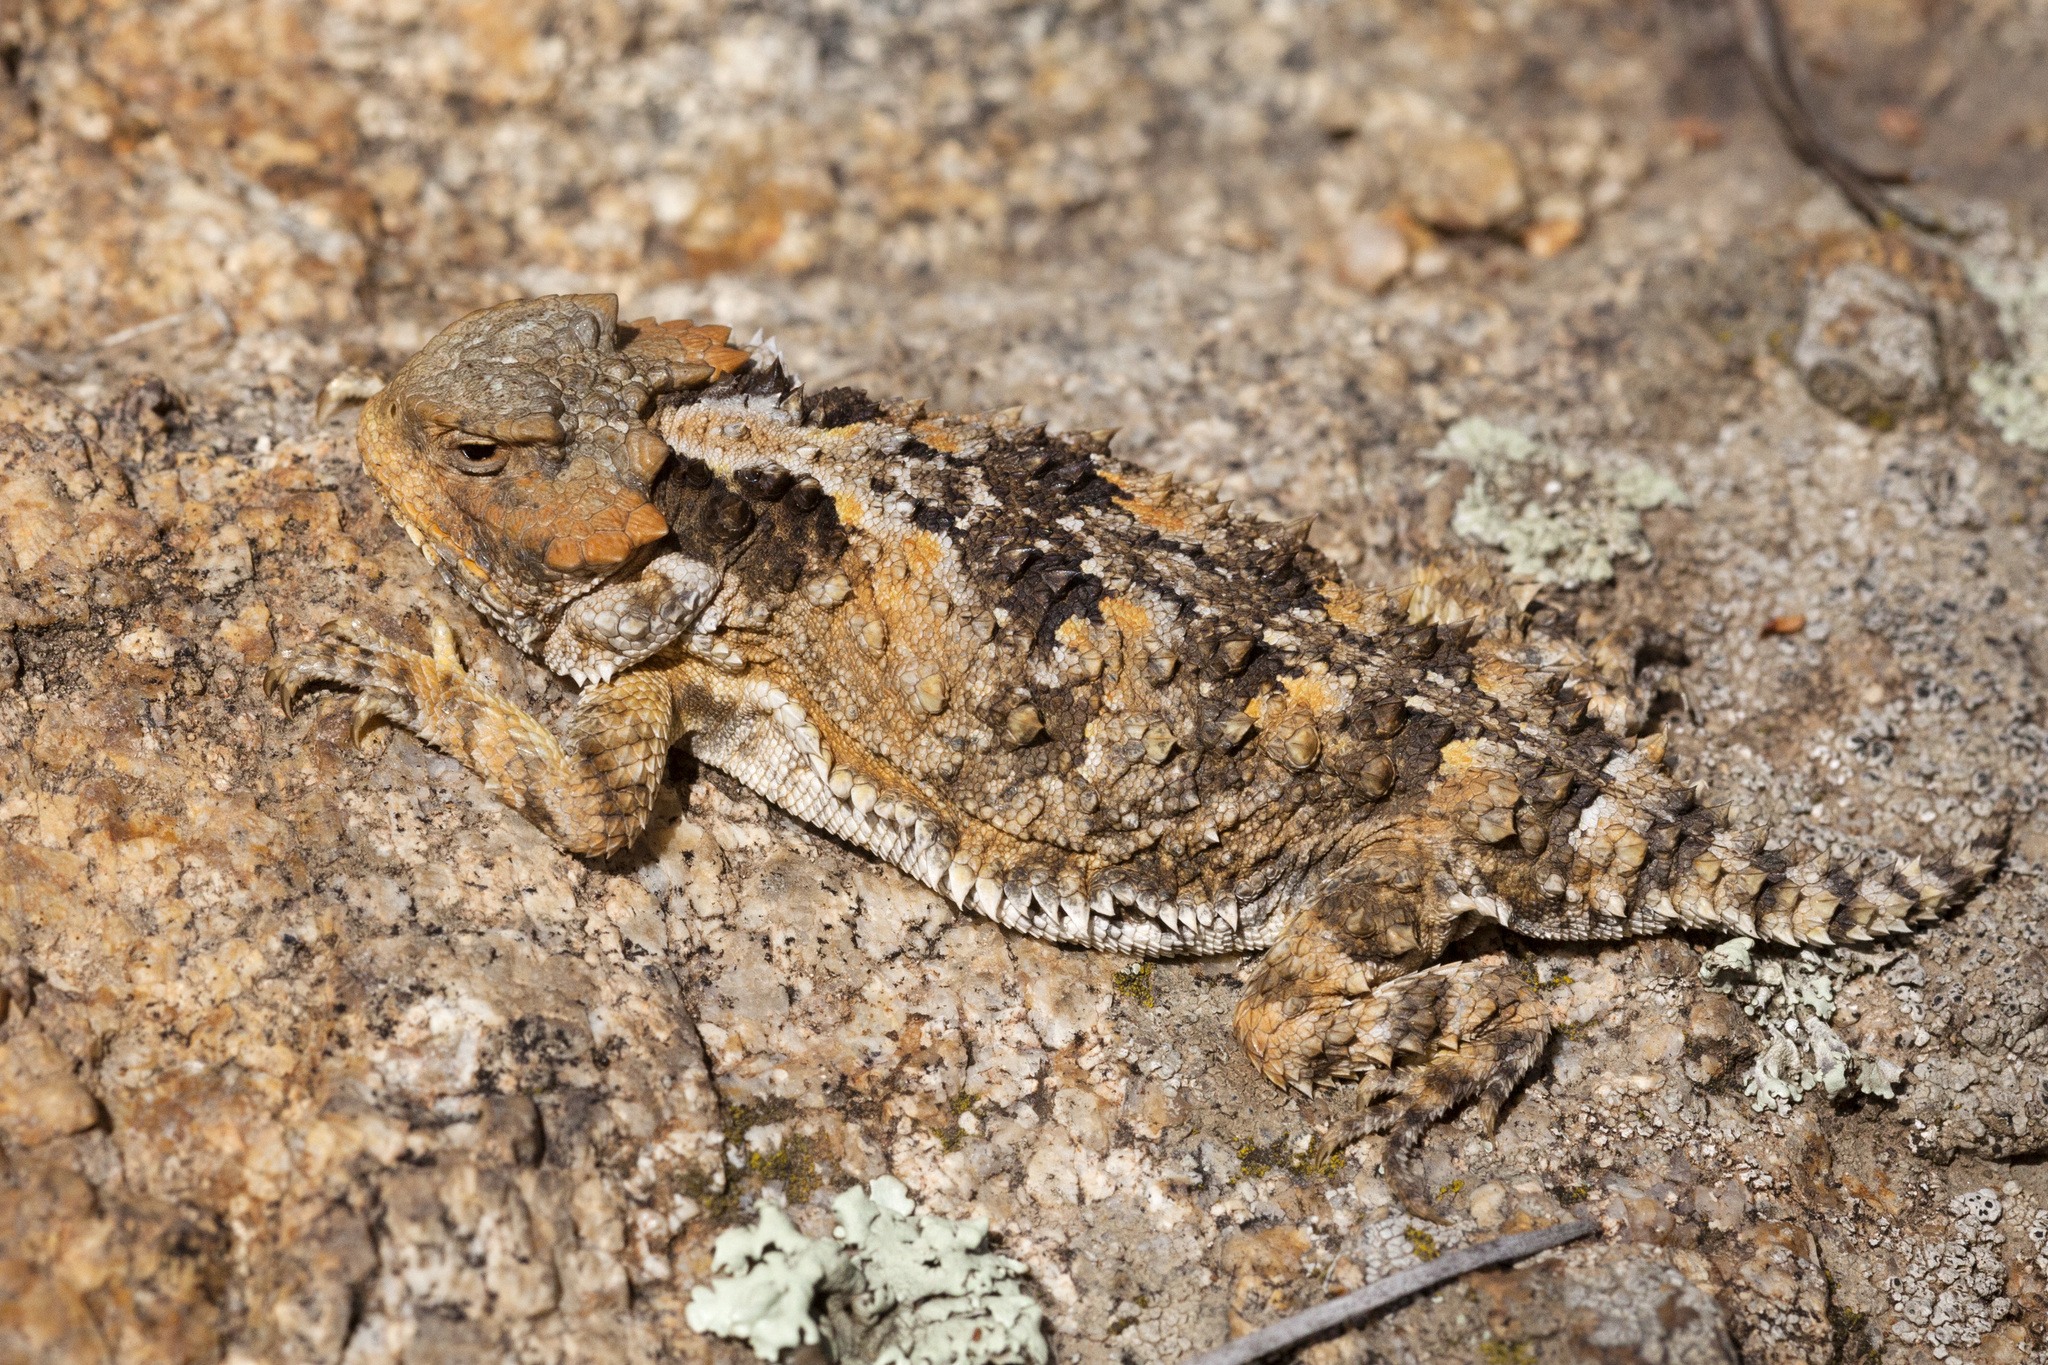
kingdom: Animalia
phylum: Chordata
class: Squamata
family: Phrynosomatidae
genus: Phrynosoma
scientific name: Phrynosoma hernandesi
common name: Greater short-horned lizard
